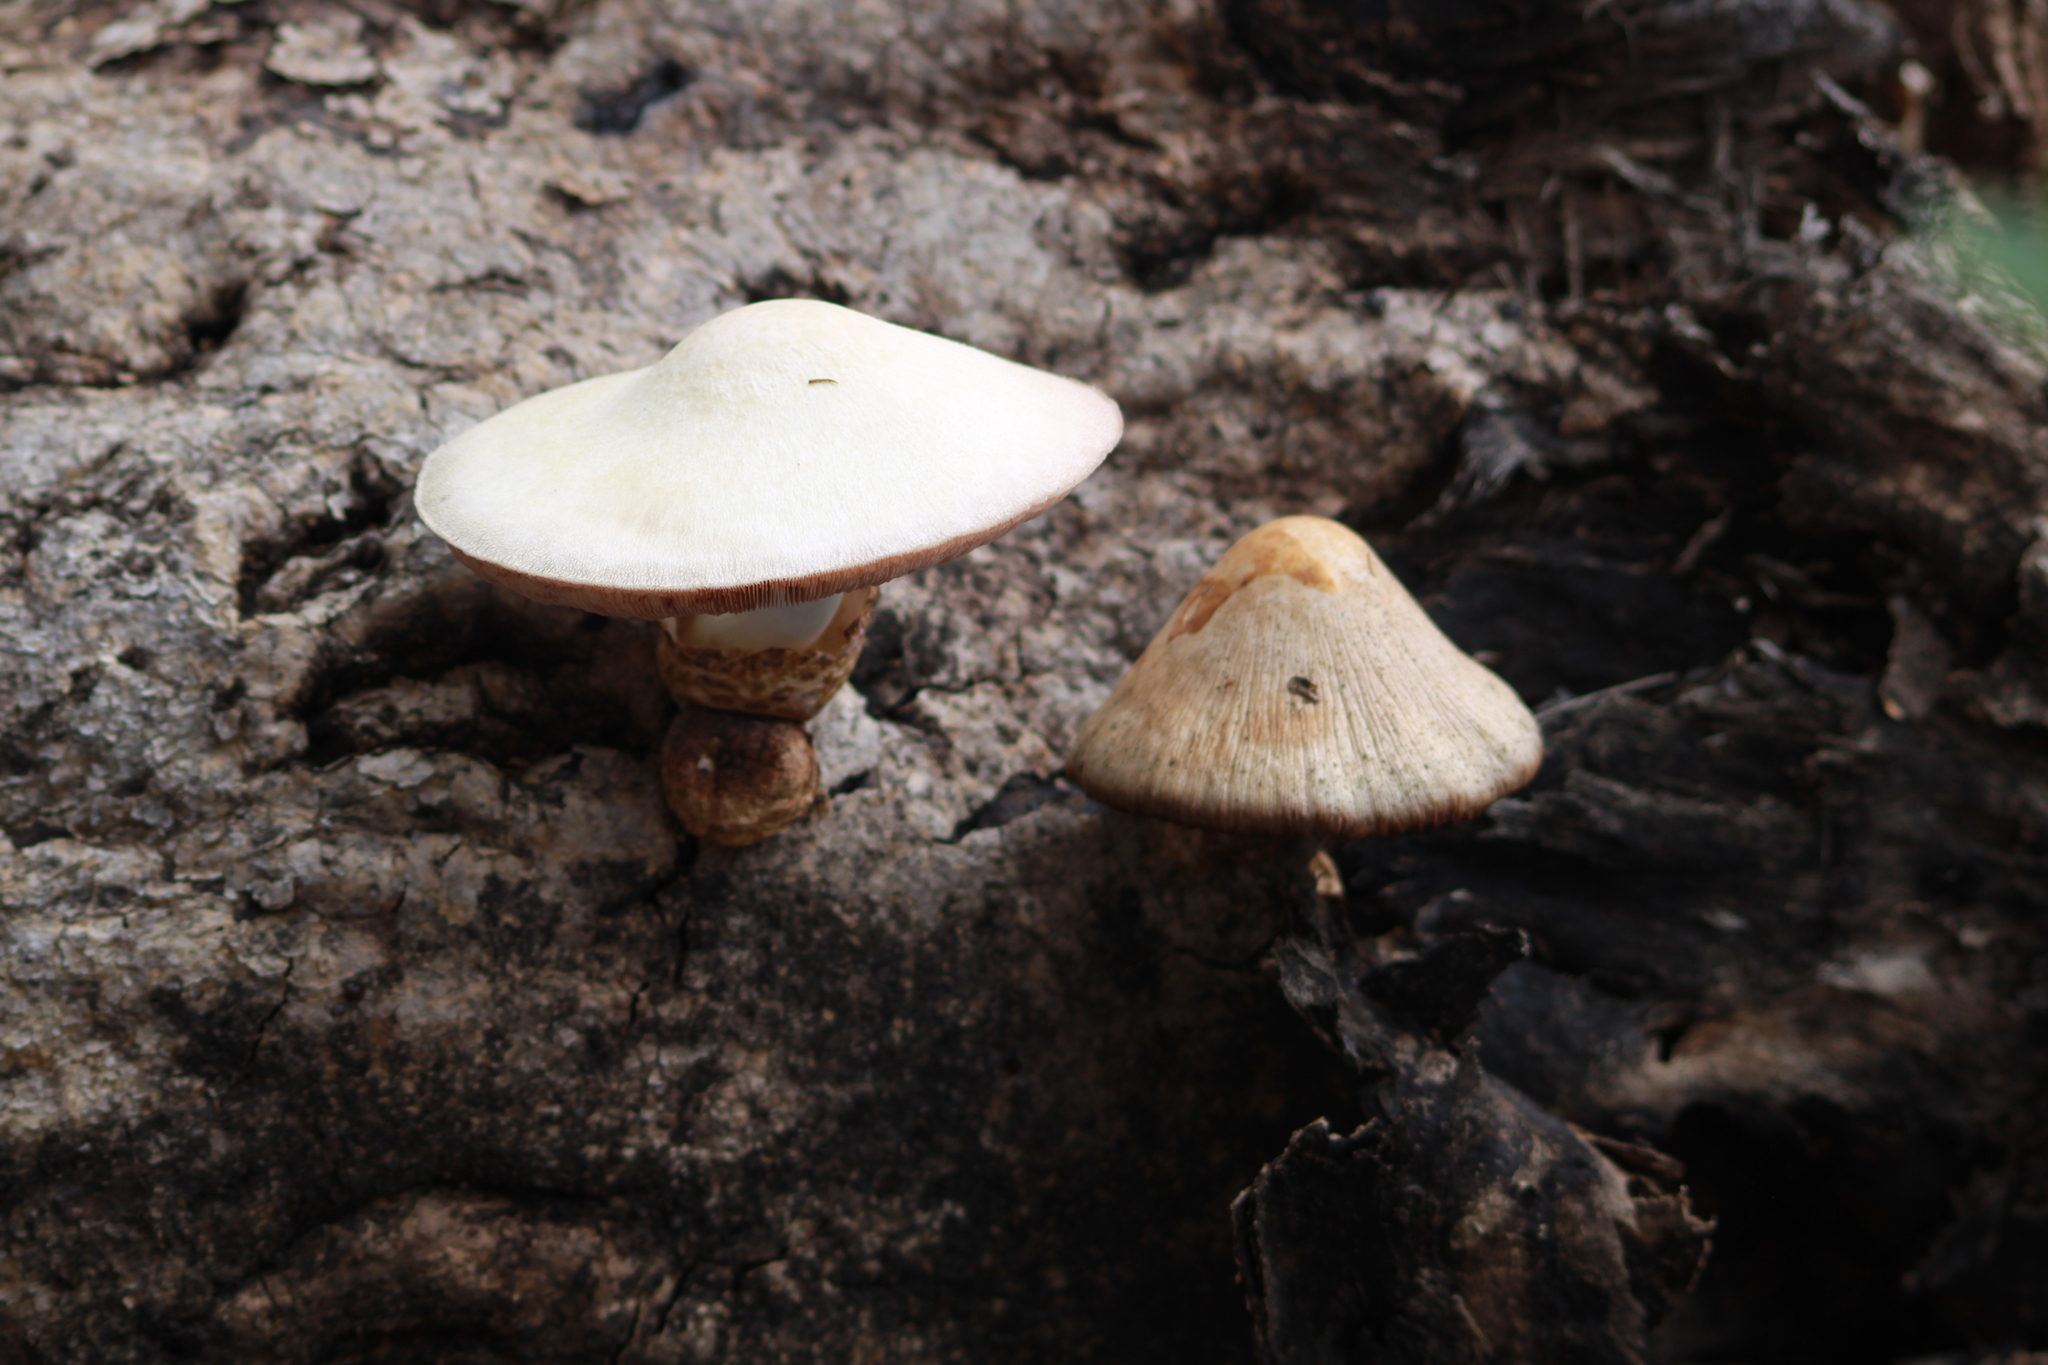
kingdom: Fungi
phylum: Basidiomycota
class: Agaricomycetes
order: Agaricales
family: Pluteaceae
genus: Volvariella
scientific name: Volvariella bombycina
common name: Silky rosegill
